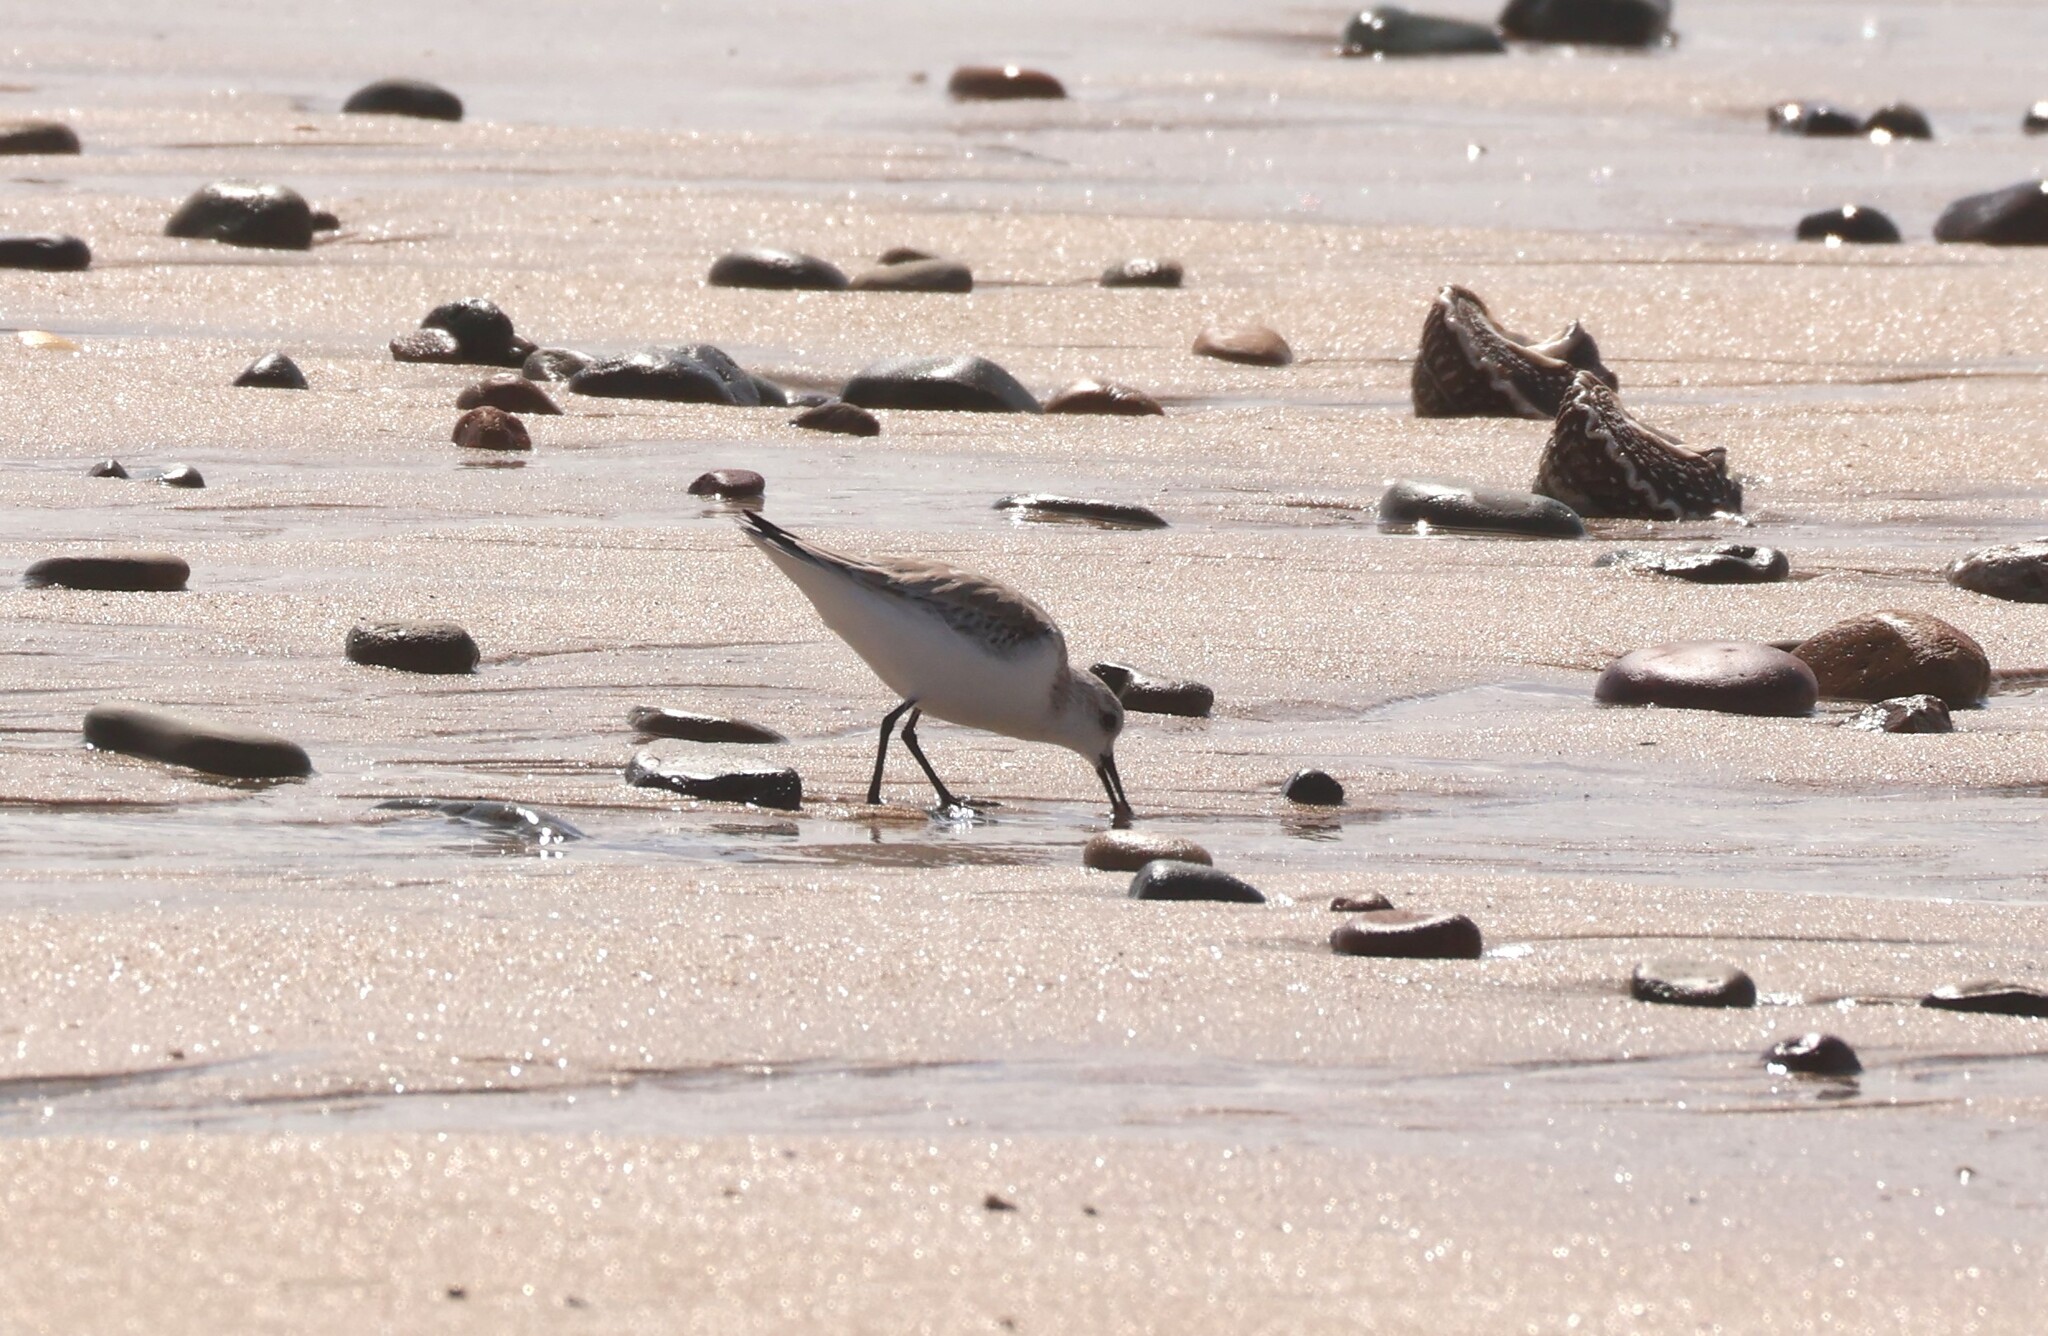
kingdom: Animalia
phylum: Chordata
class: Aves
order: Charadriiformes
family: Scolopacidae
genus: Calidris
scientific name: Calidris alba
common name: Sanderling
